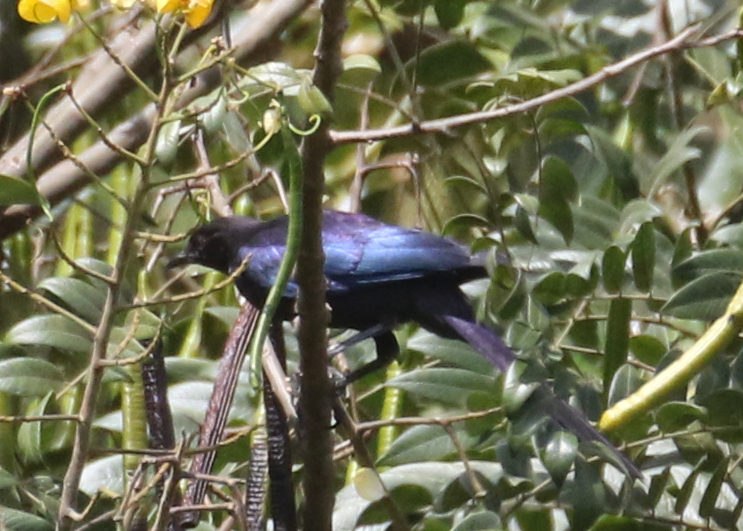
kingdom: Animalia
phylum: Chordata
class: Aves
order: Passeriformes
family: Sturnidae
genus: Lamprotornis
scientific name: Lamprotornis purpuroptera
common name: Rüppell's starling
